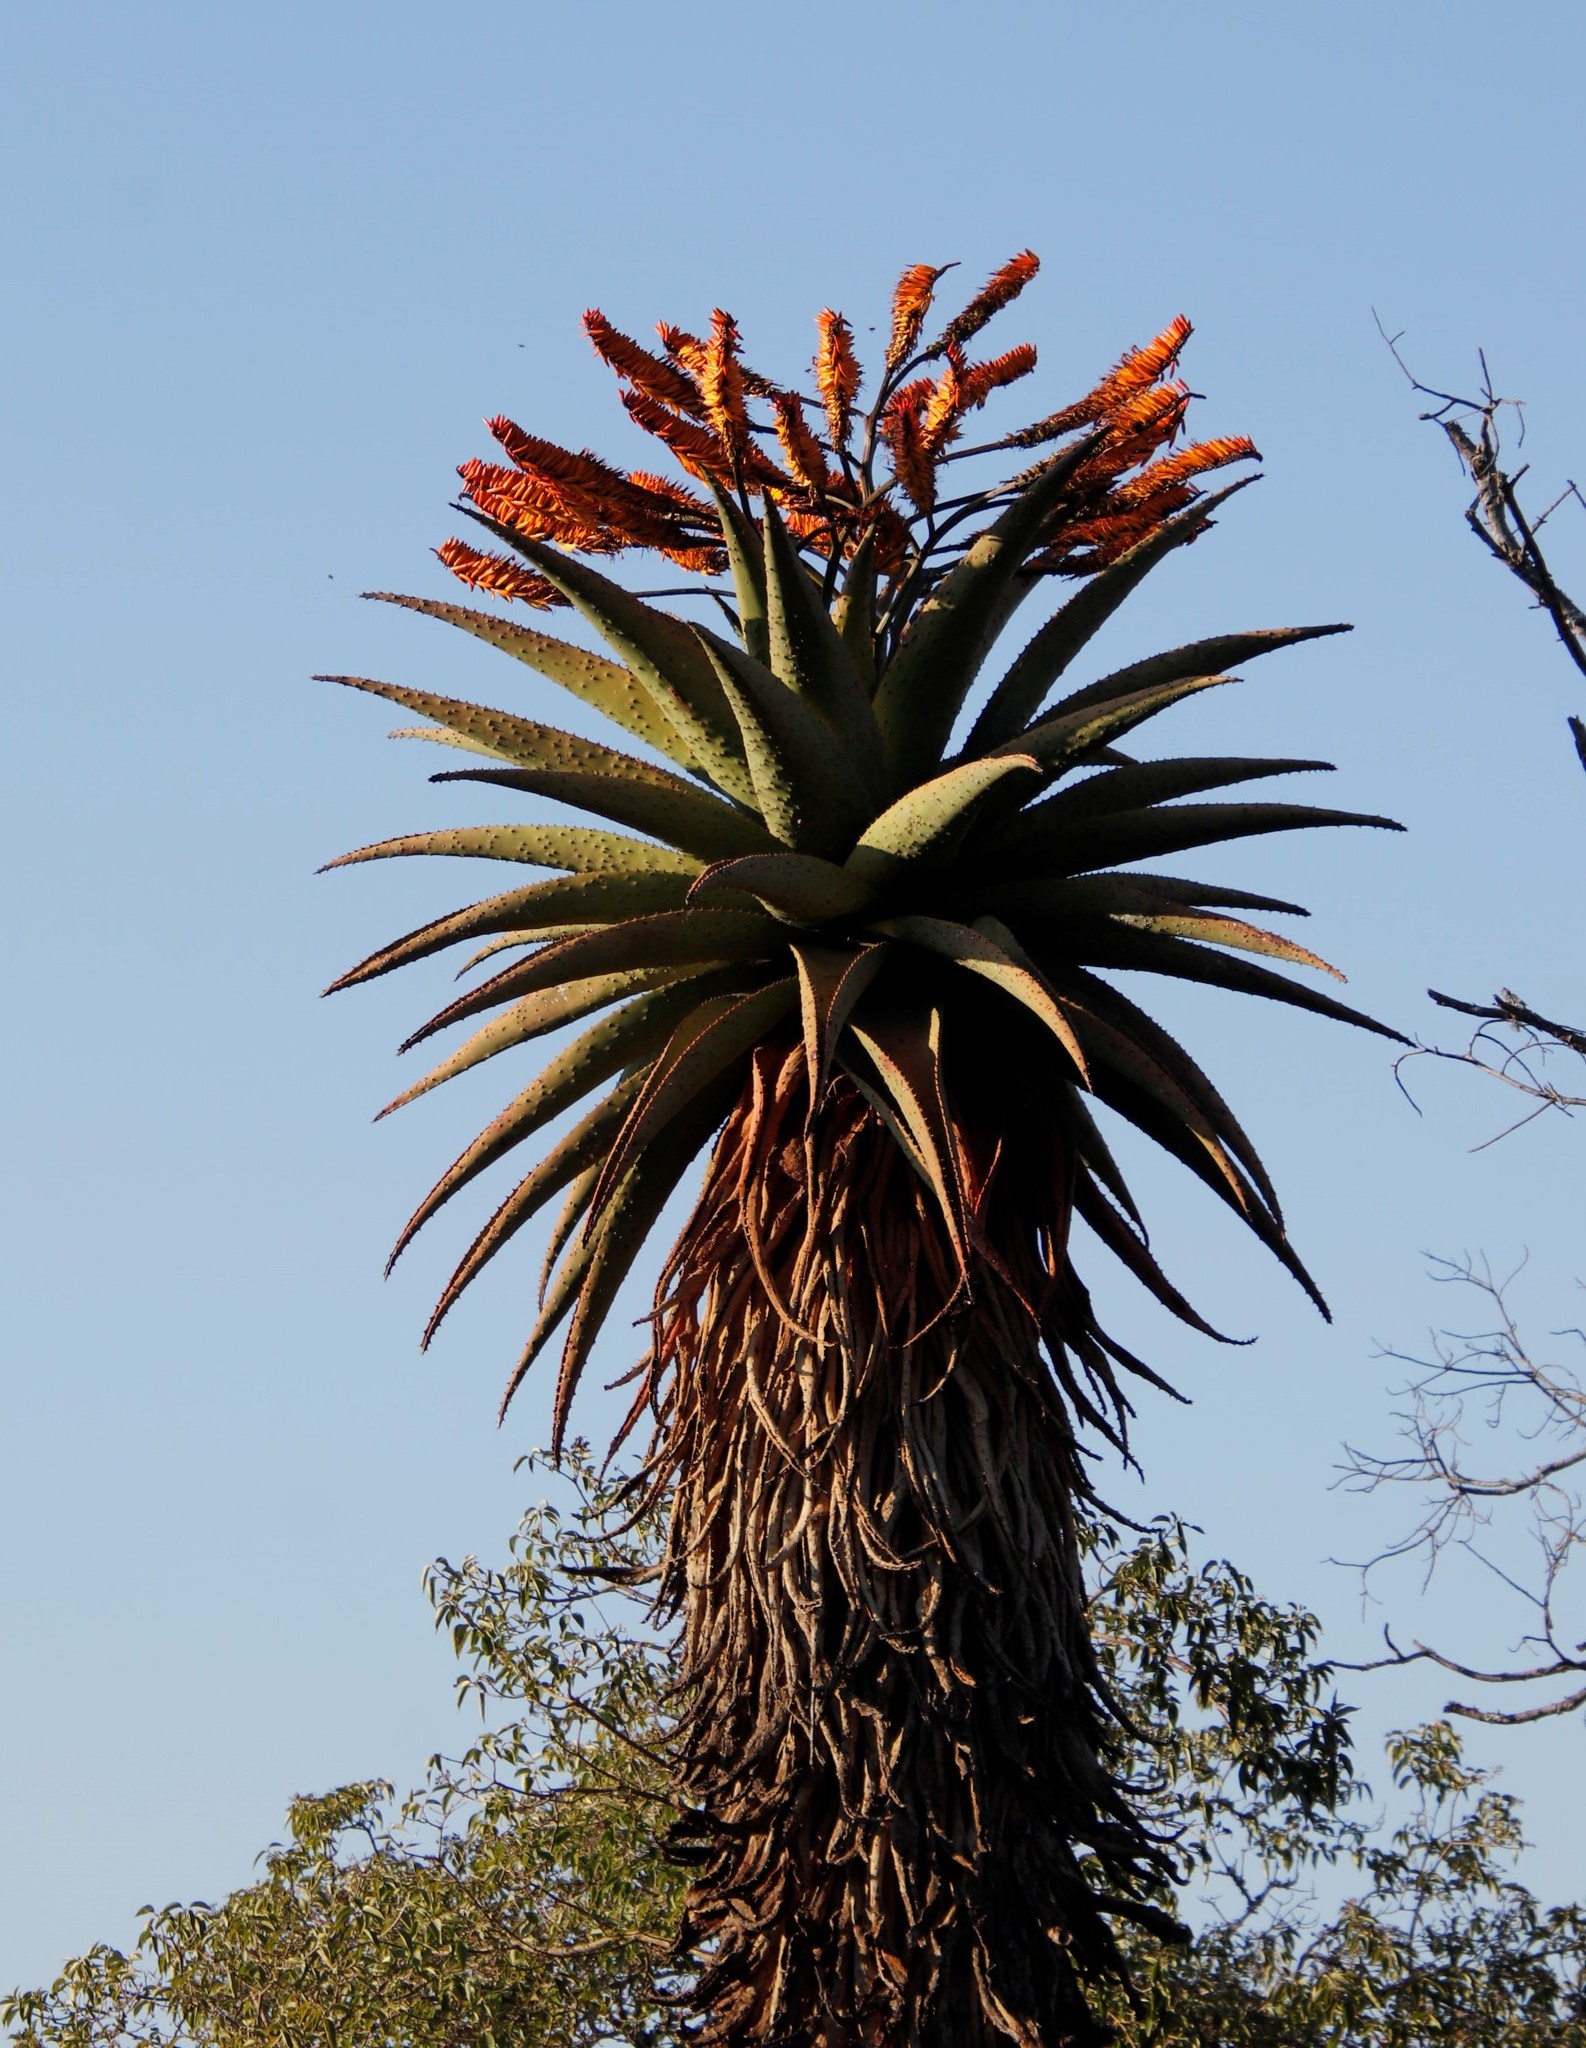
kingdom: Plantae
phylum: Tracheophyta
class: Liliopsida
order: Asparagales
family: Asphodelaceae
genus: Aloe
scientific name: Aloe marlothii
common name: Flat-flowered aloe
